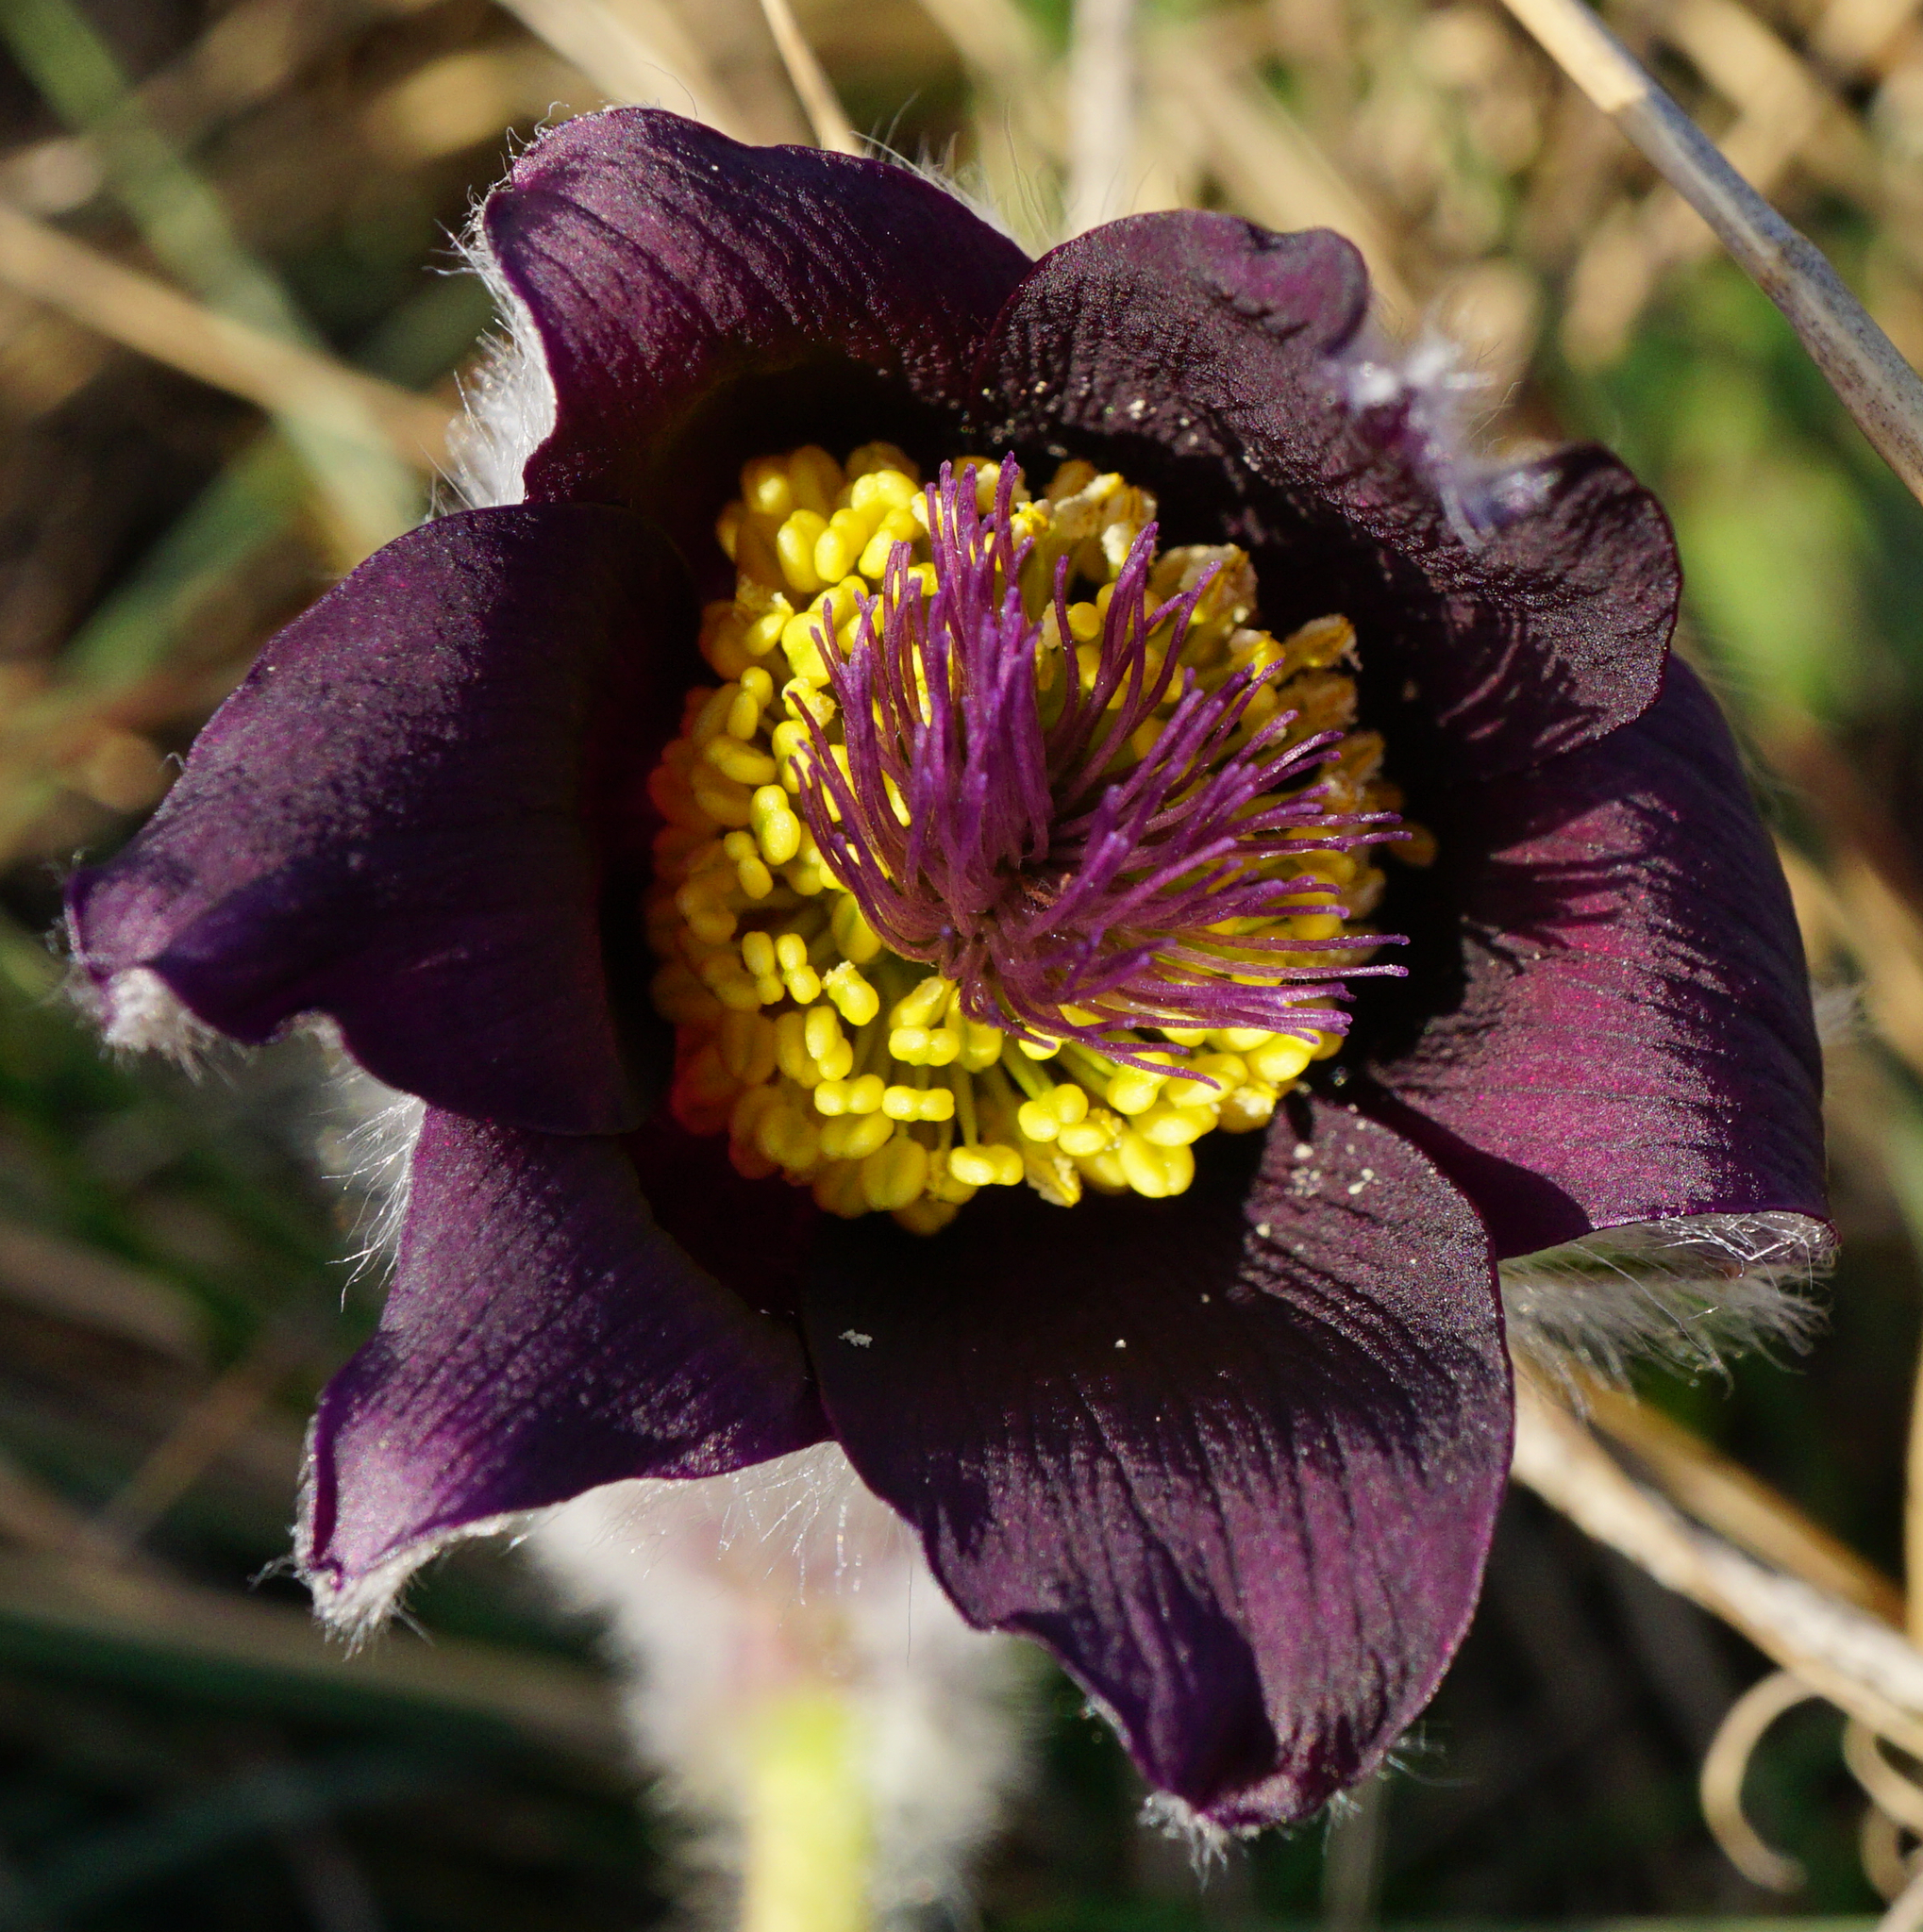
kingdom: Plantae
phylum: Tracheophyta
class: Magnoliopsida
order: Ranunculales
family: Ranunculaceae
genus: Pulsatilla
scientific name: Pulsatilla pratensis
